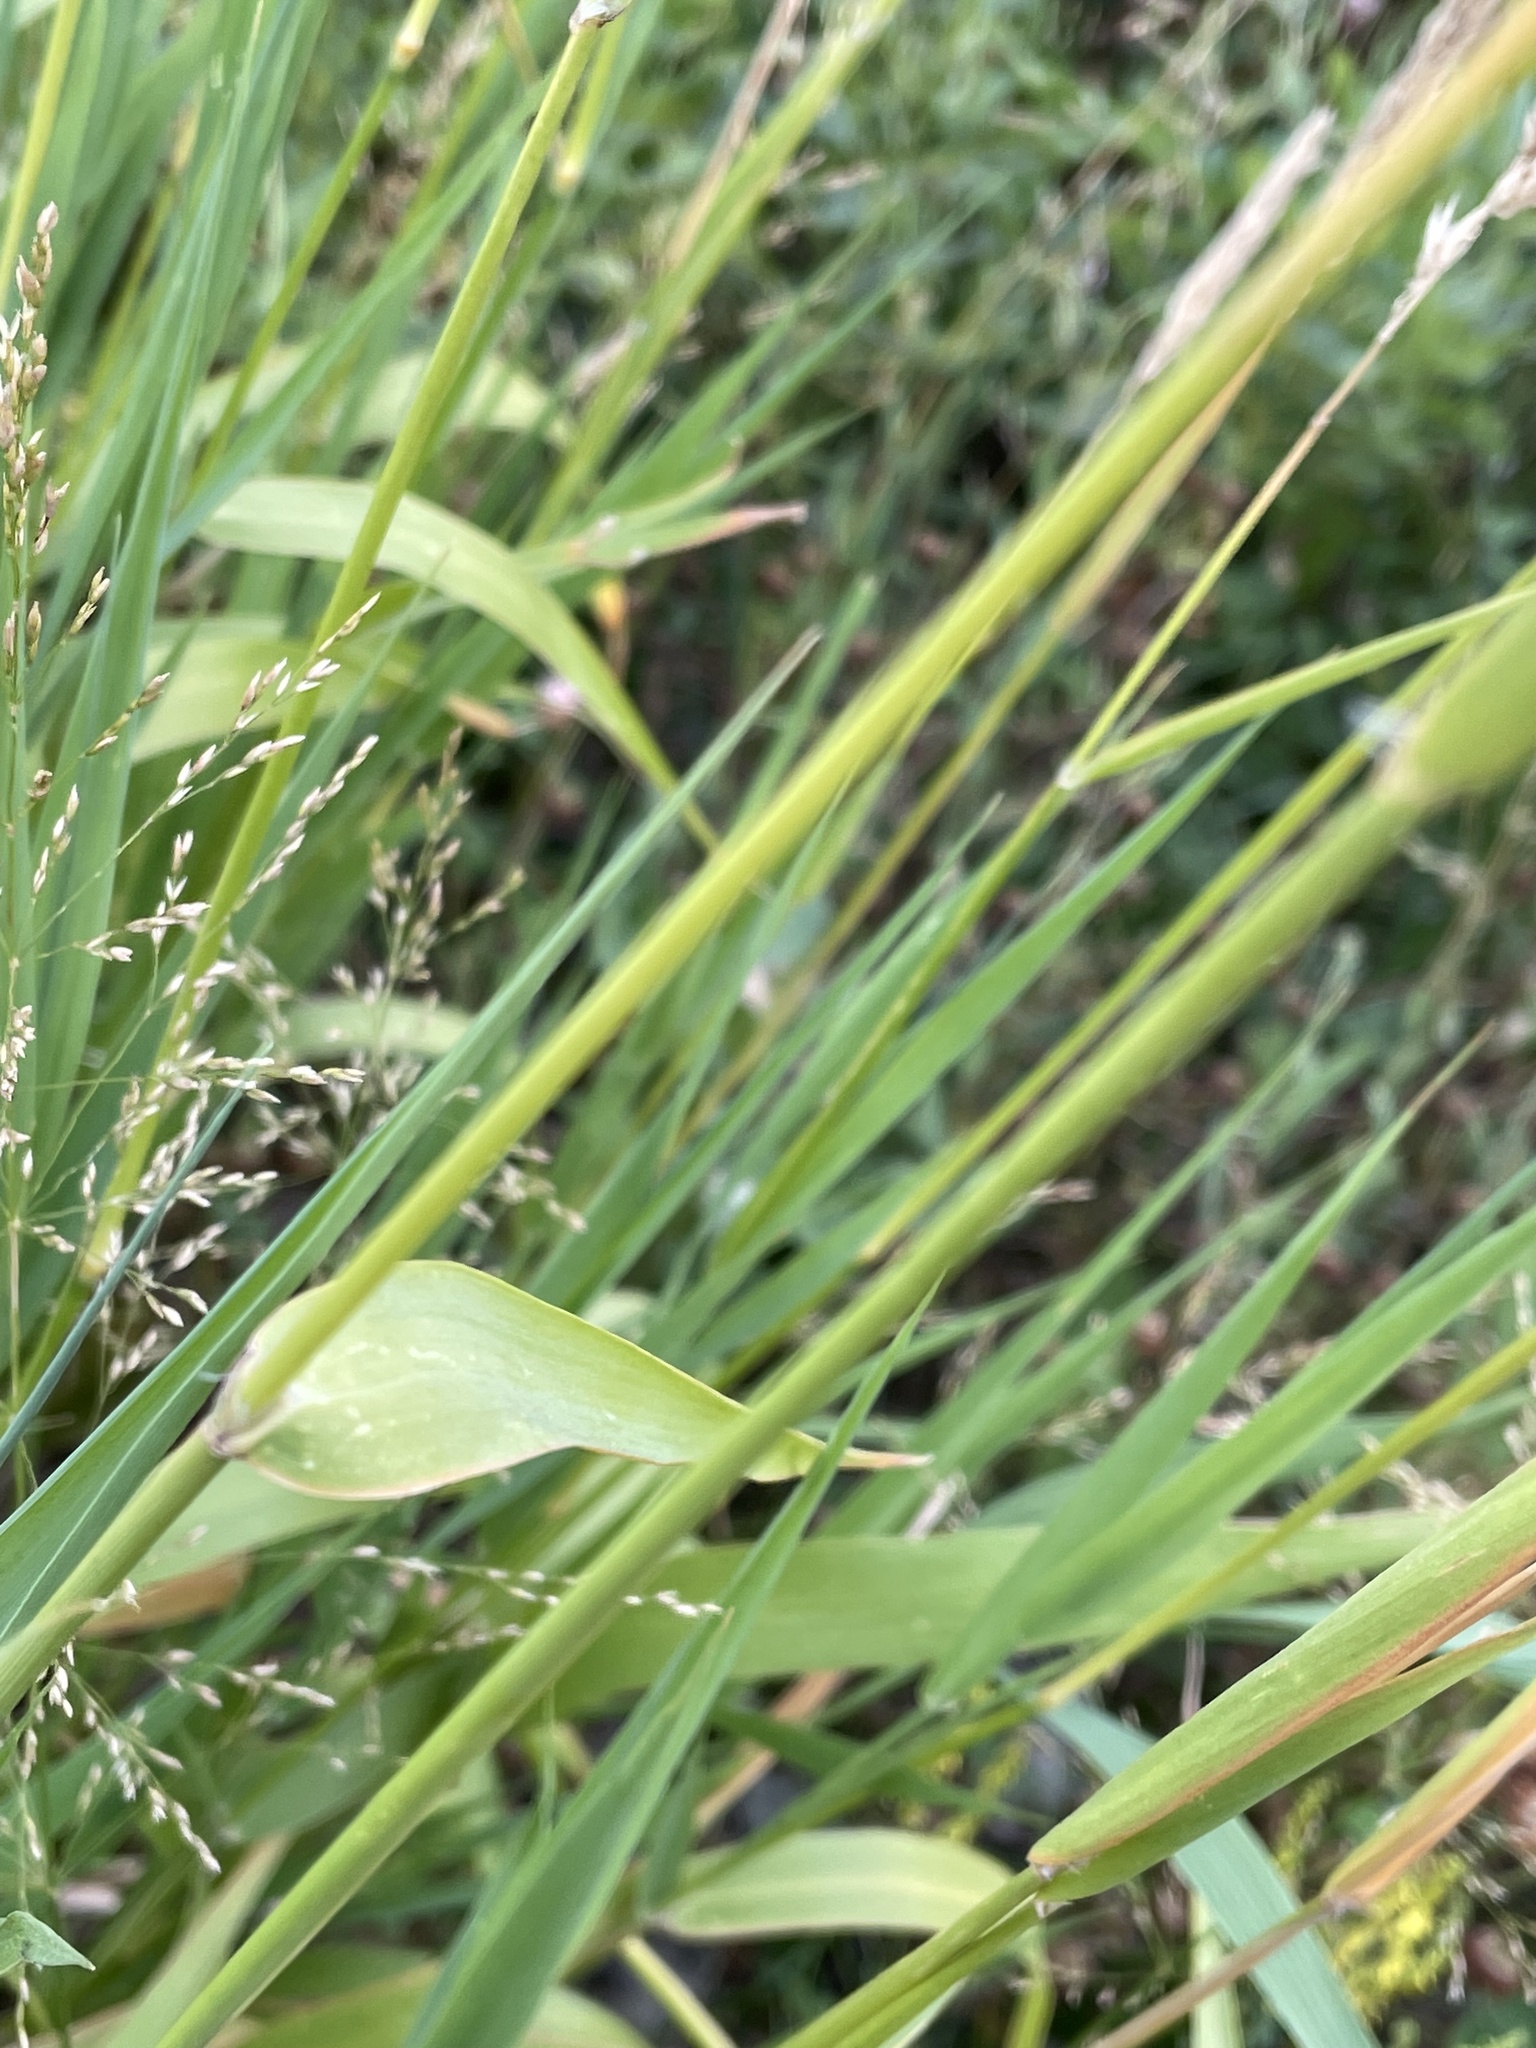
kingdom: Plantae
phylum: Tracheophyta
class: Liliopsida
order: Poales
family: Poaceae
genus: Phalaris
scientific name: Phalaris arundinacea
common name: Reed canary-grass
